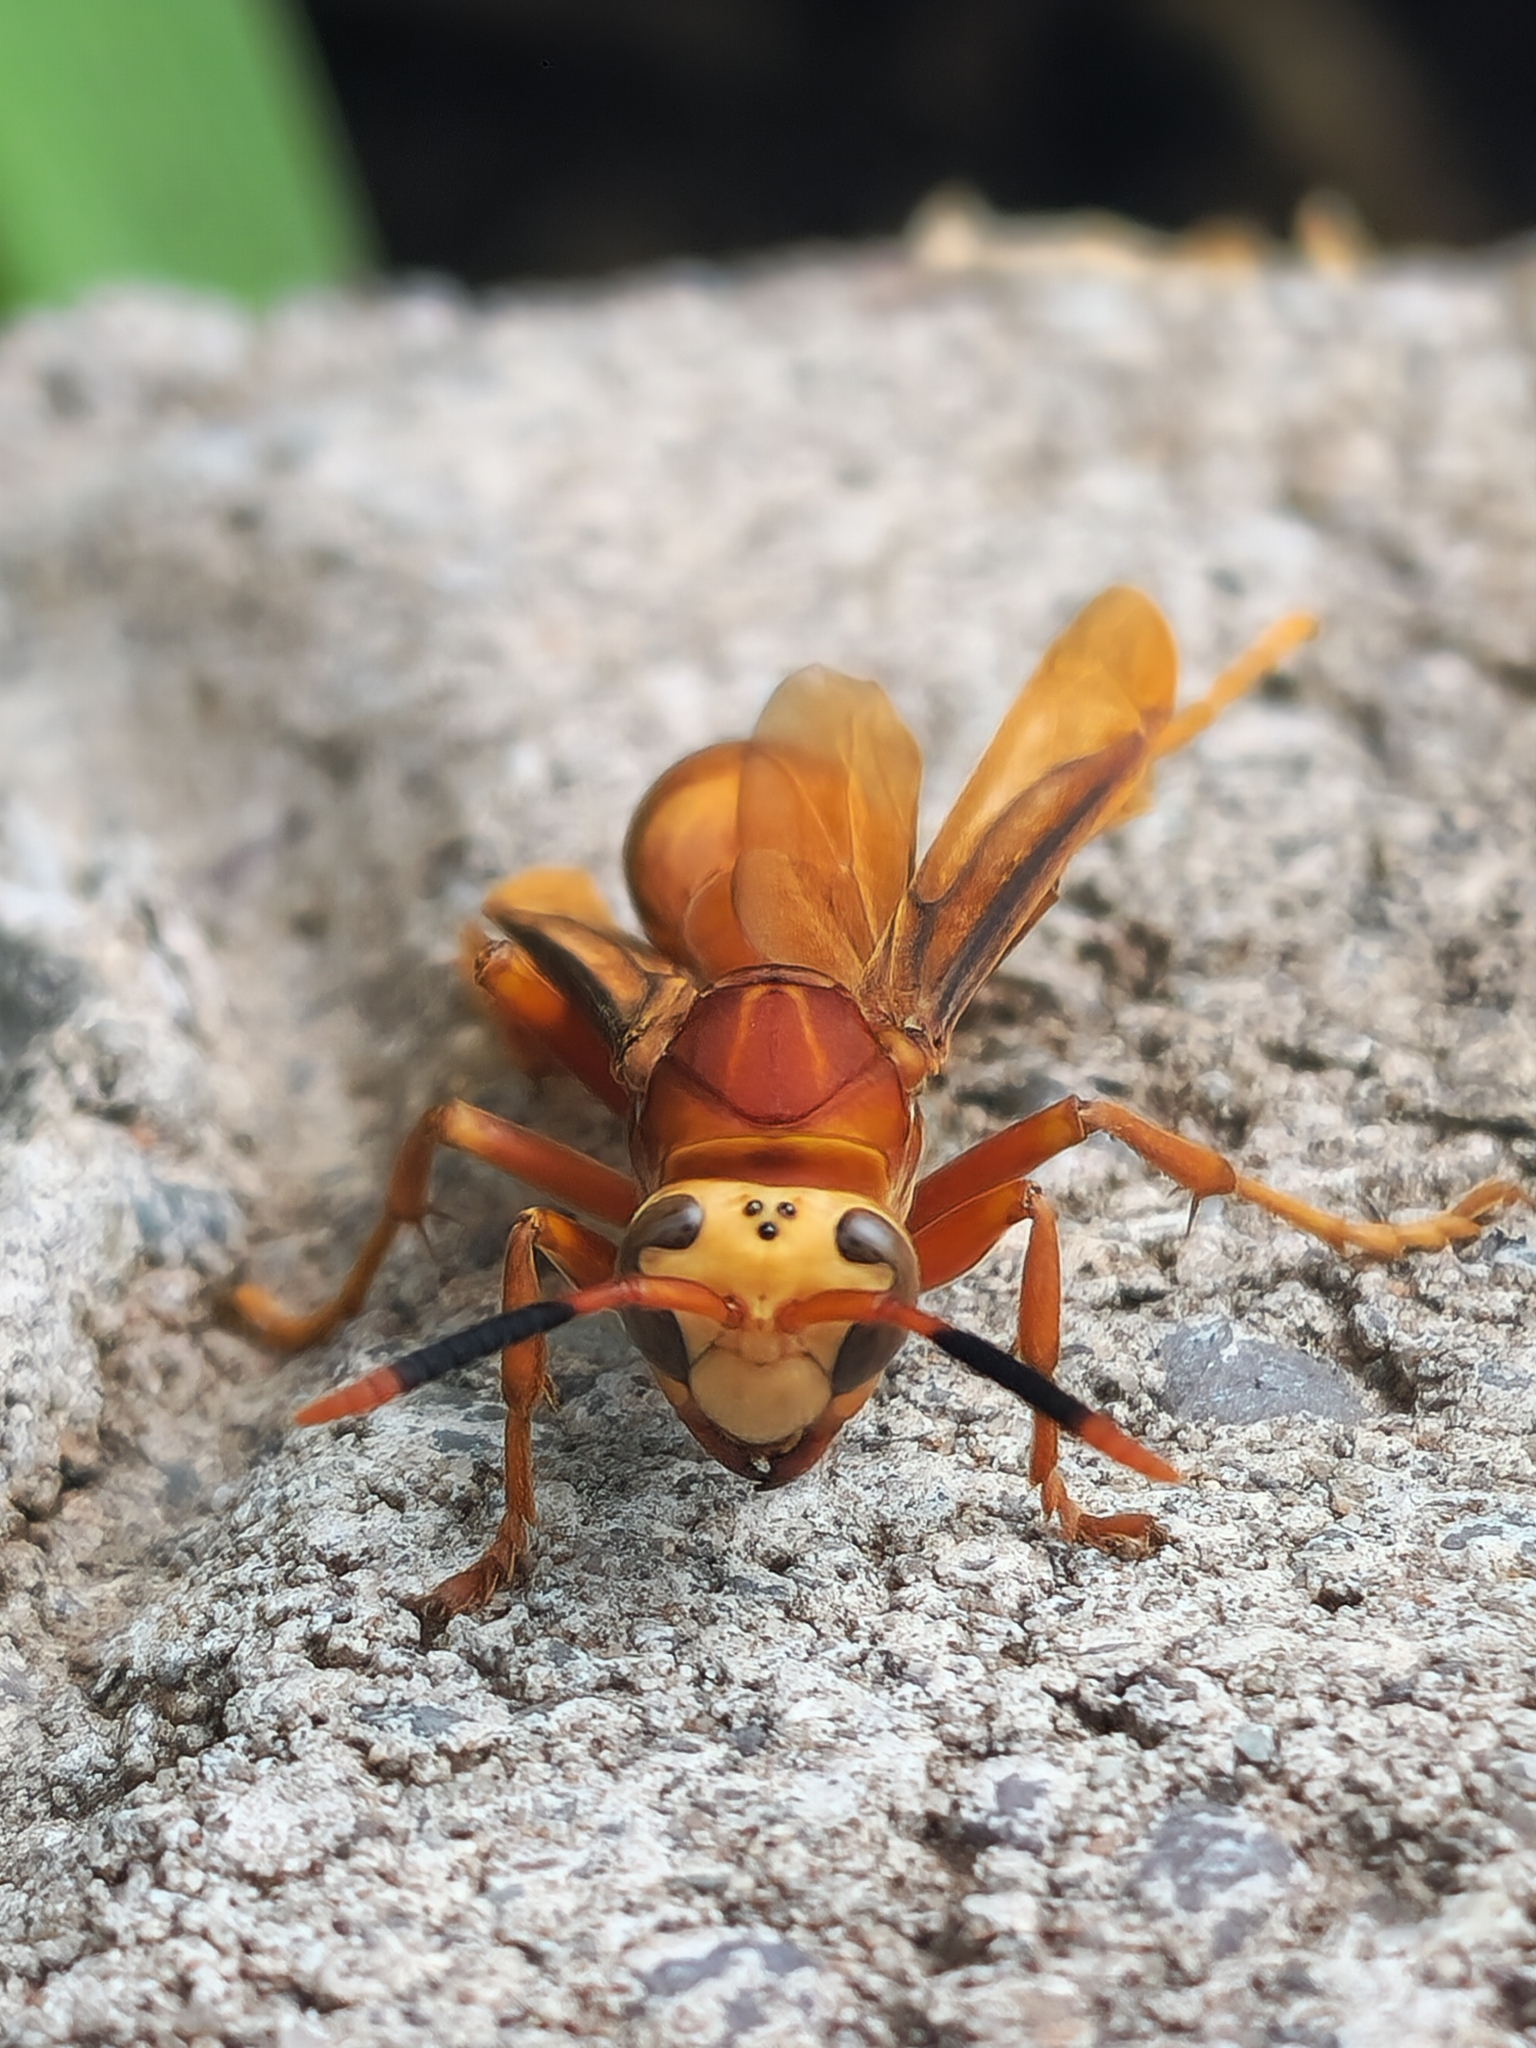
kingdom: Animalia
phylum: Arthropoda
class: Insecta
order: Hymenoptera
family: Eumenidae
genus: Polistes
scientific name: Polistes cavapyta
